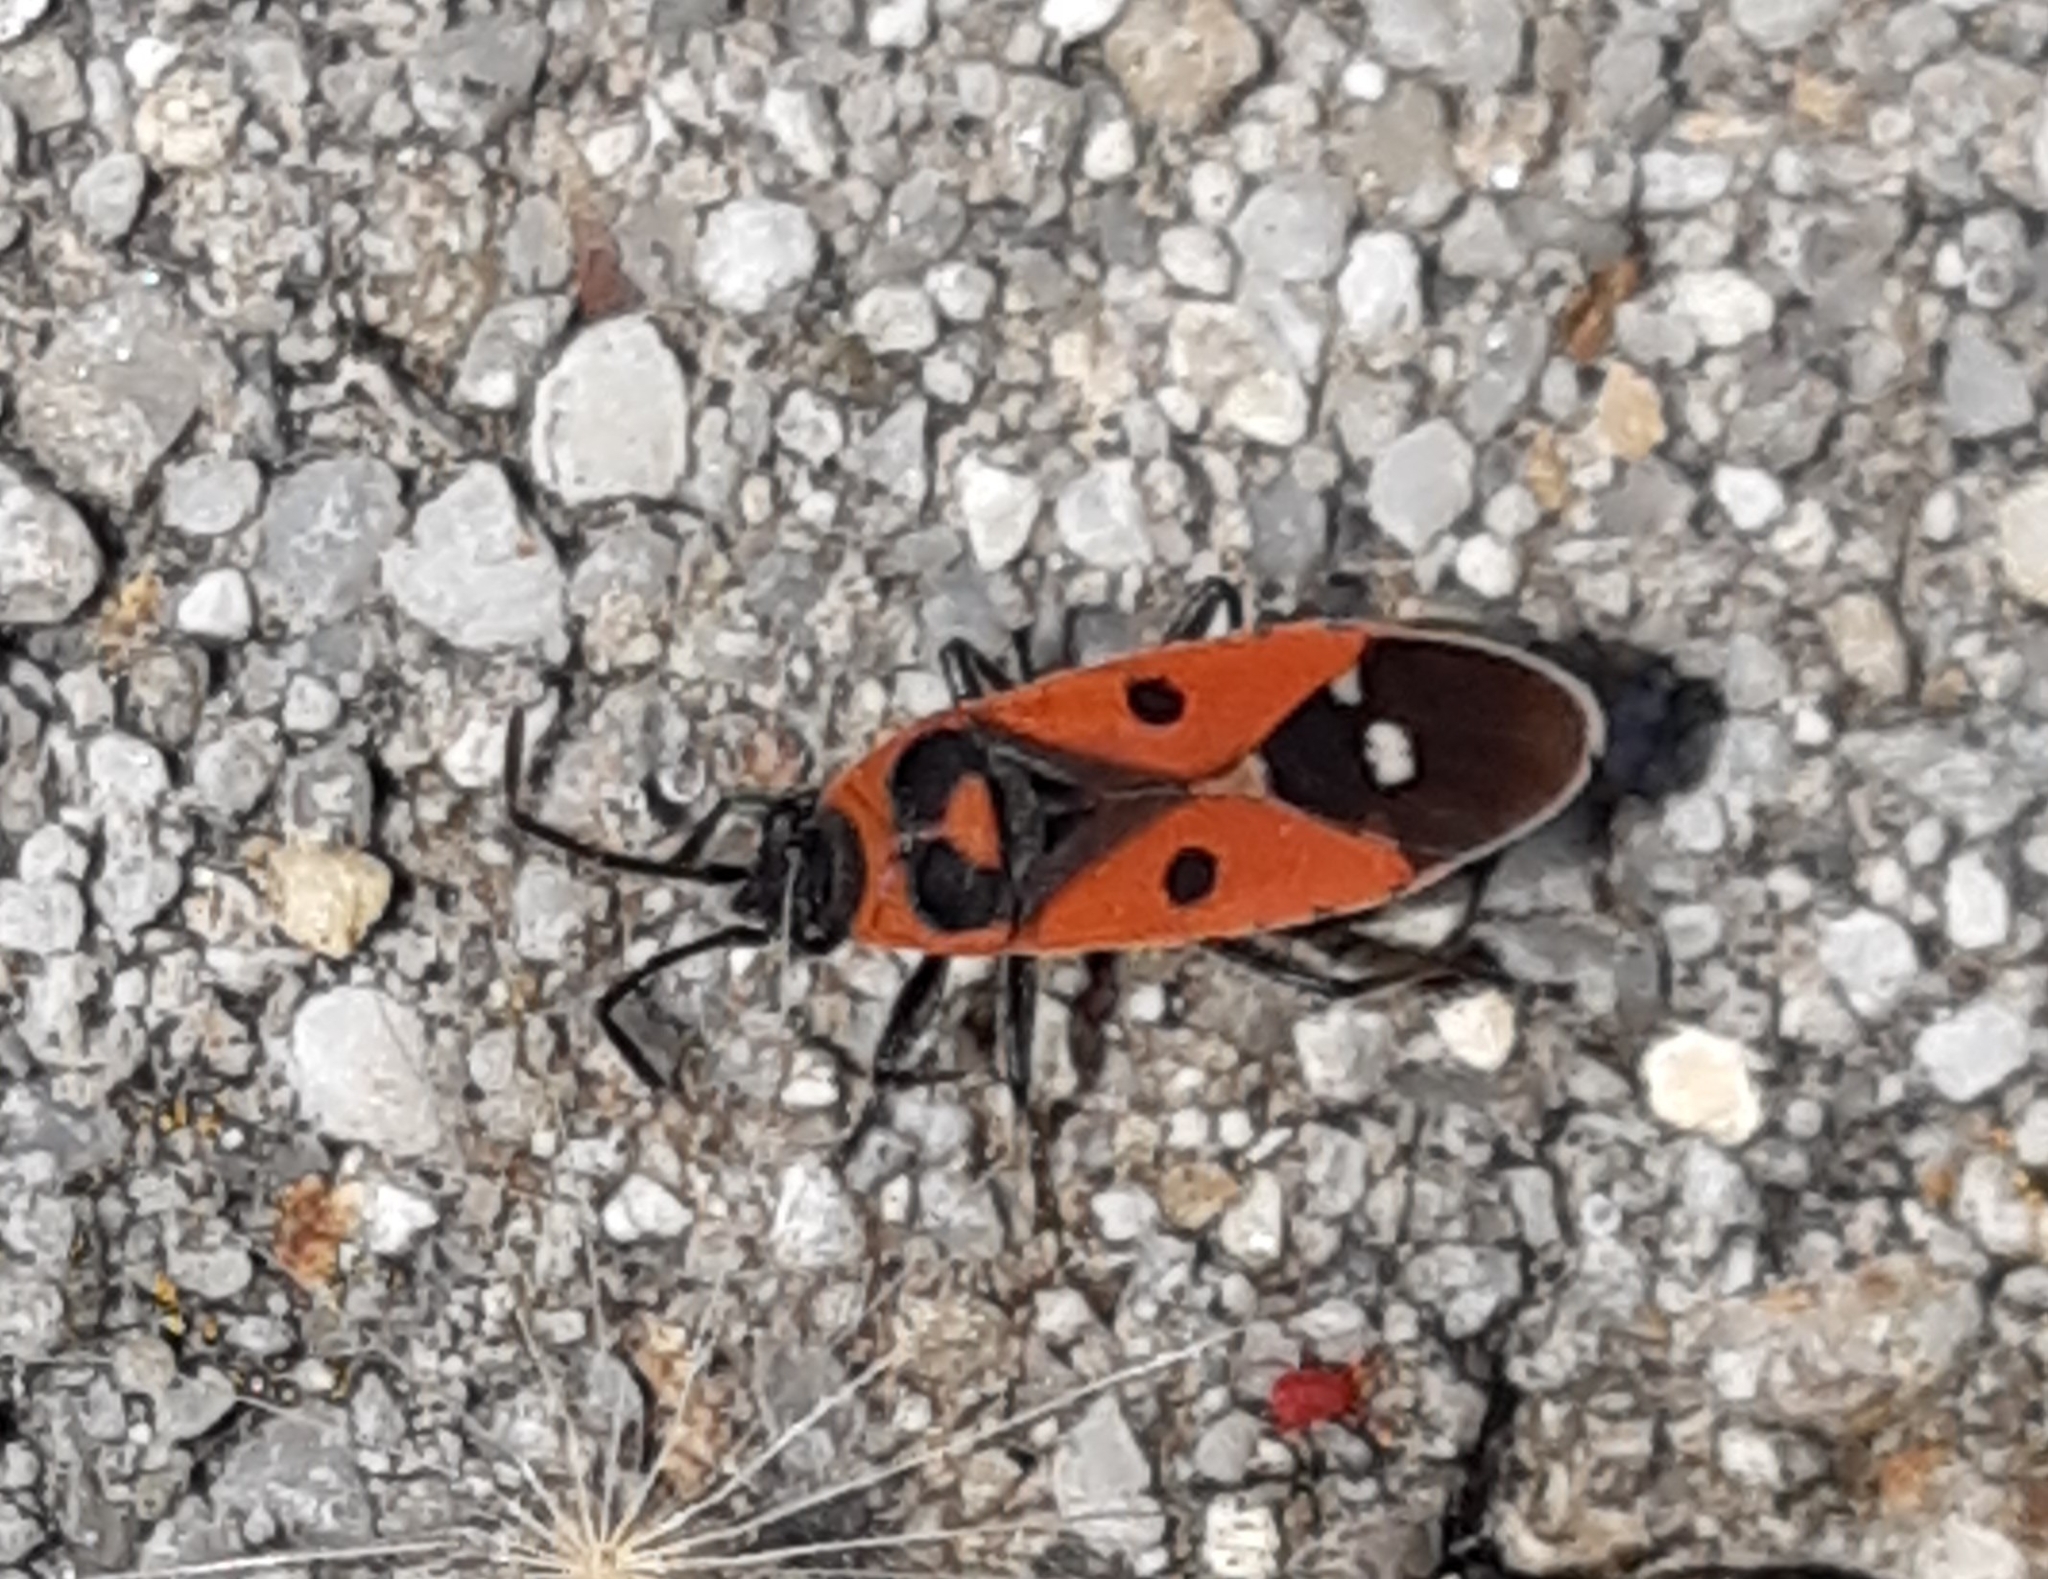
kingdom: Animalia
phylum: Arthropoda
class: Insecta
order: Hemiptera
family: Lygaeidae
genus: Melanocoryphus
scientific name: Melanocoryphus albomaculatus
